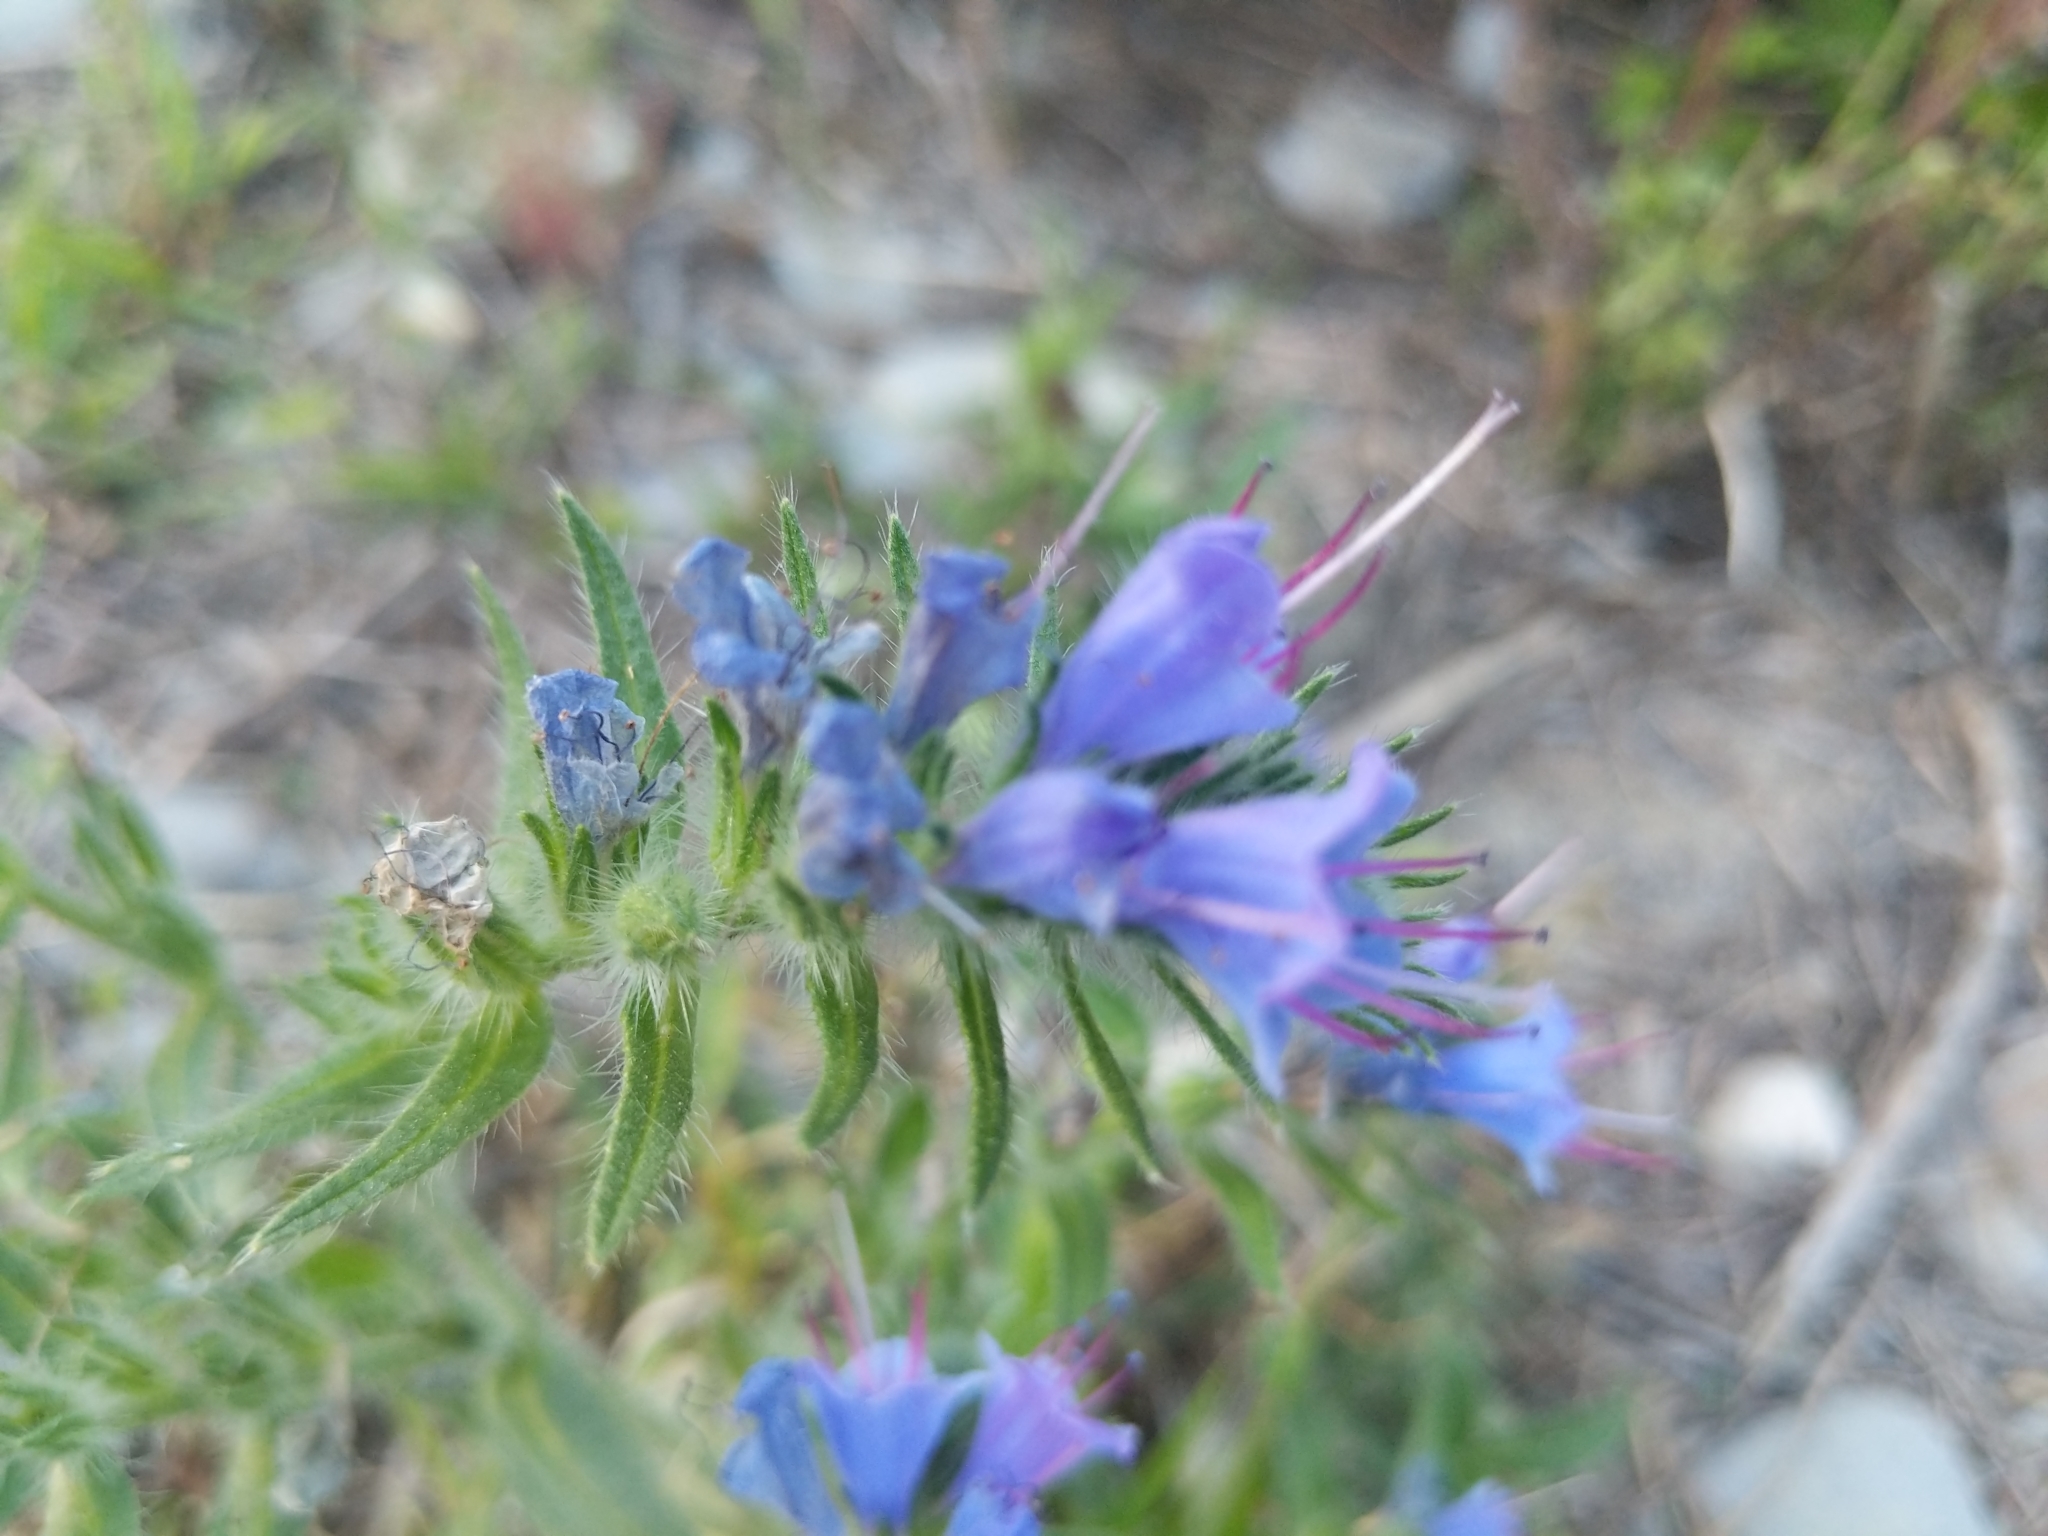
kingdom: Plantae
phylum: Tracheophyta
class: Magnoliopsida
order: Boraginales
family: Boraginaceae
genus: Echium
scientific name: Echium vulgare
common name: Common viper's bugloss
